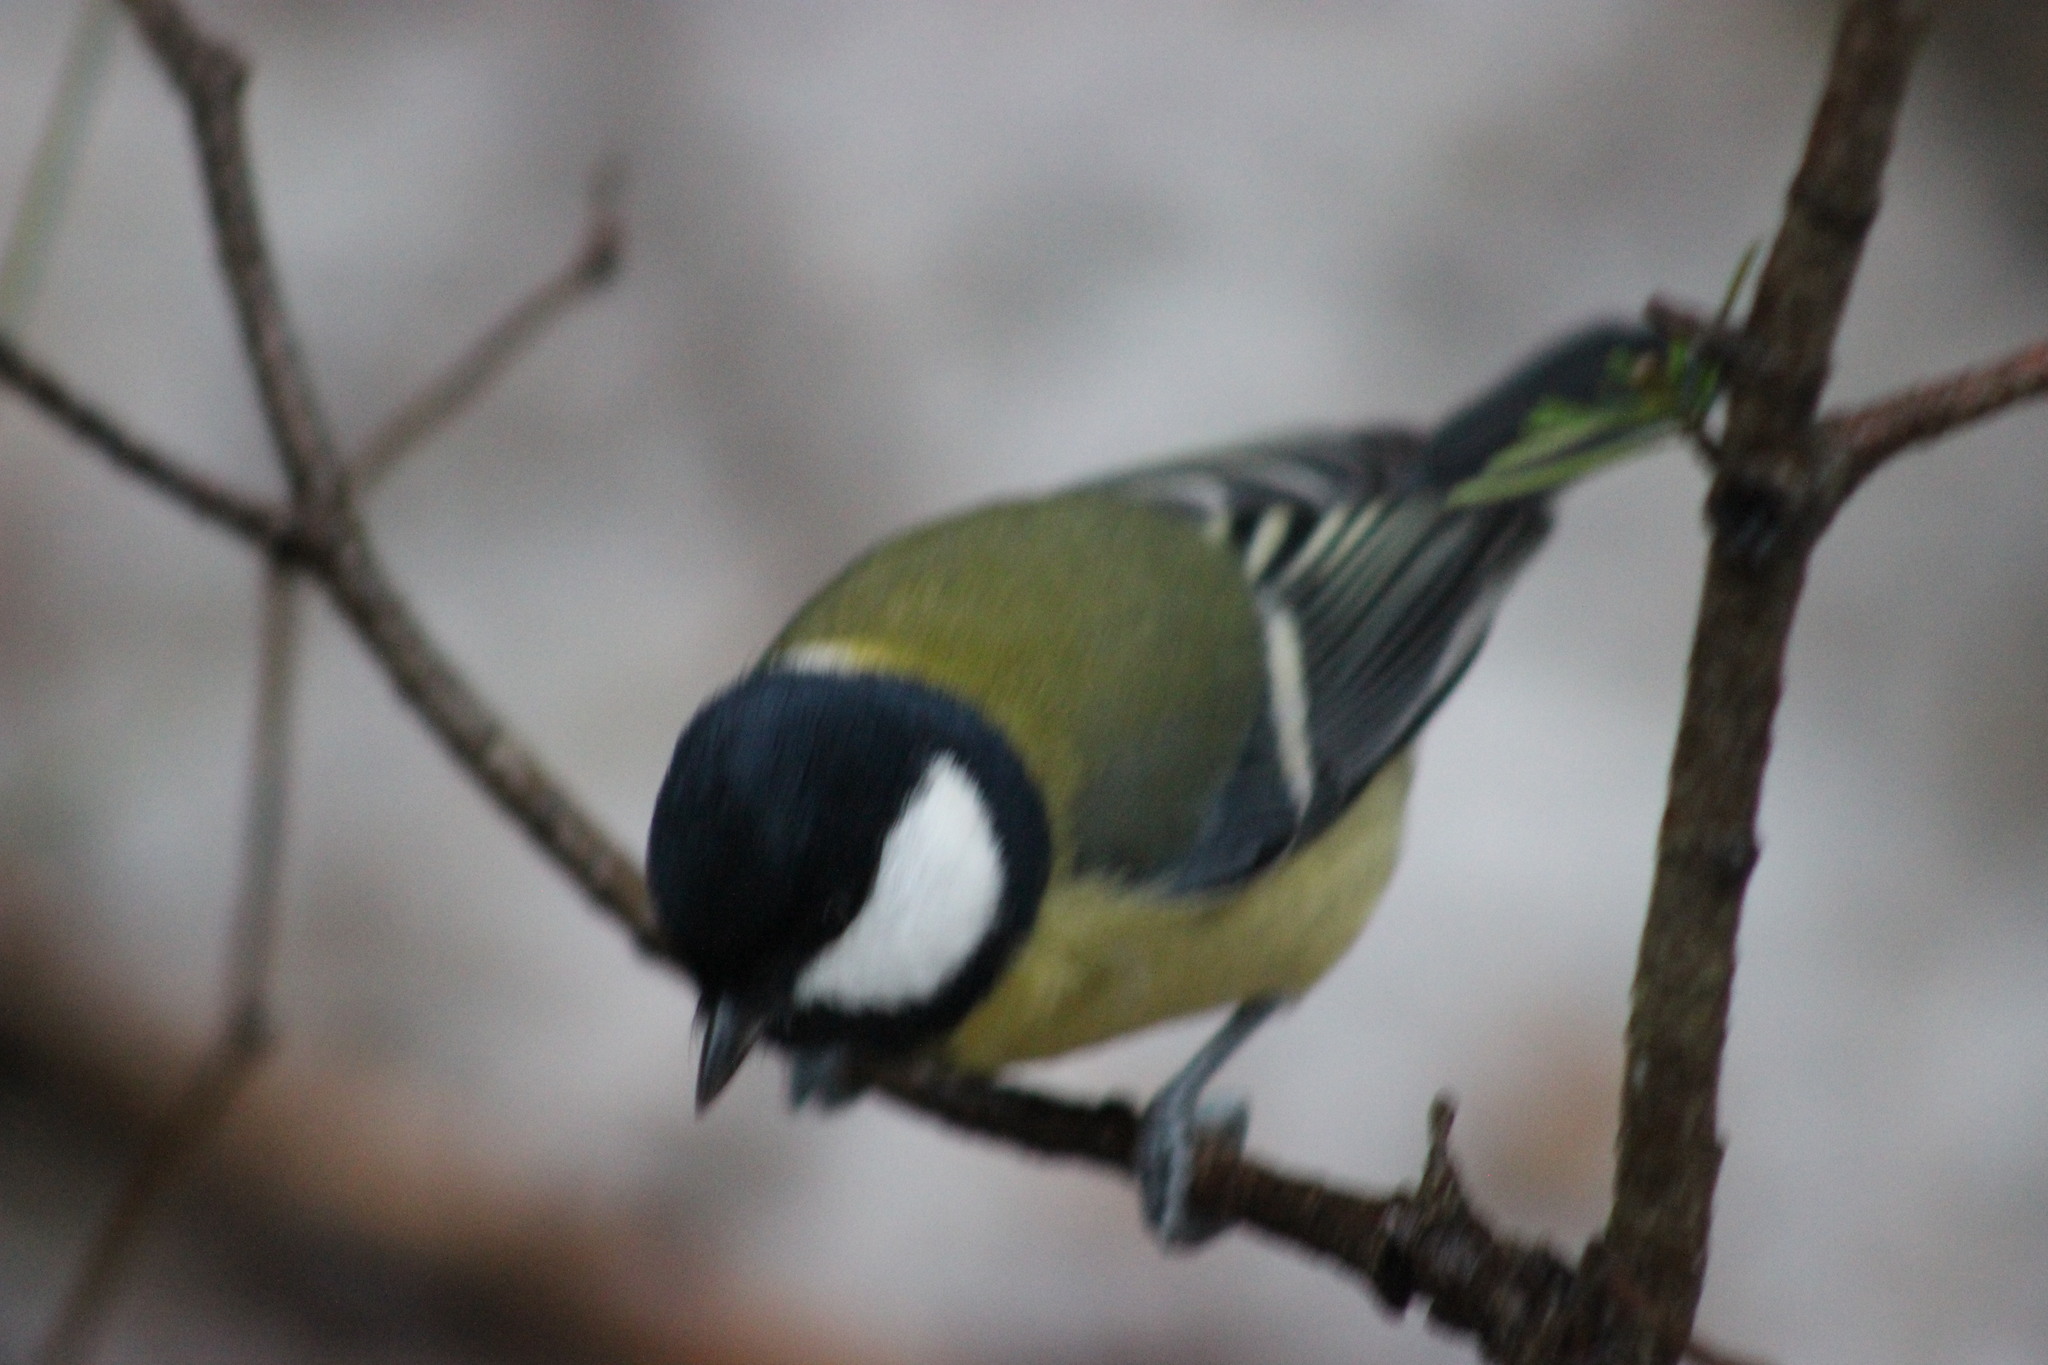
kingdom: Animalia
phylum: Chordata
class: Aves
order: Passeriformes
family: Paridae
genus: Parus
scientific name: Parus major
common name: Great tit
